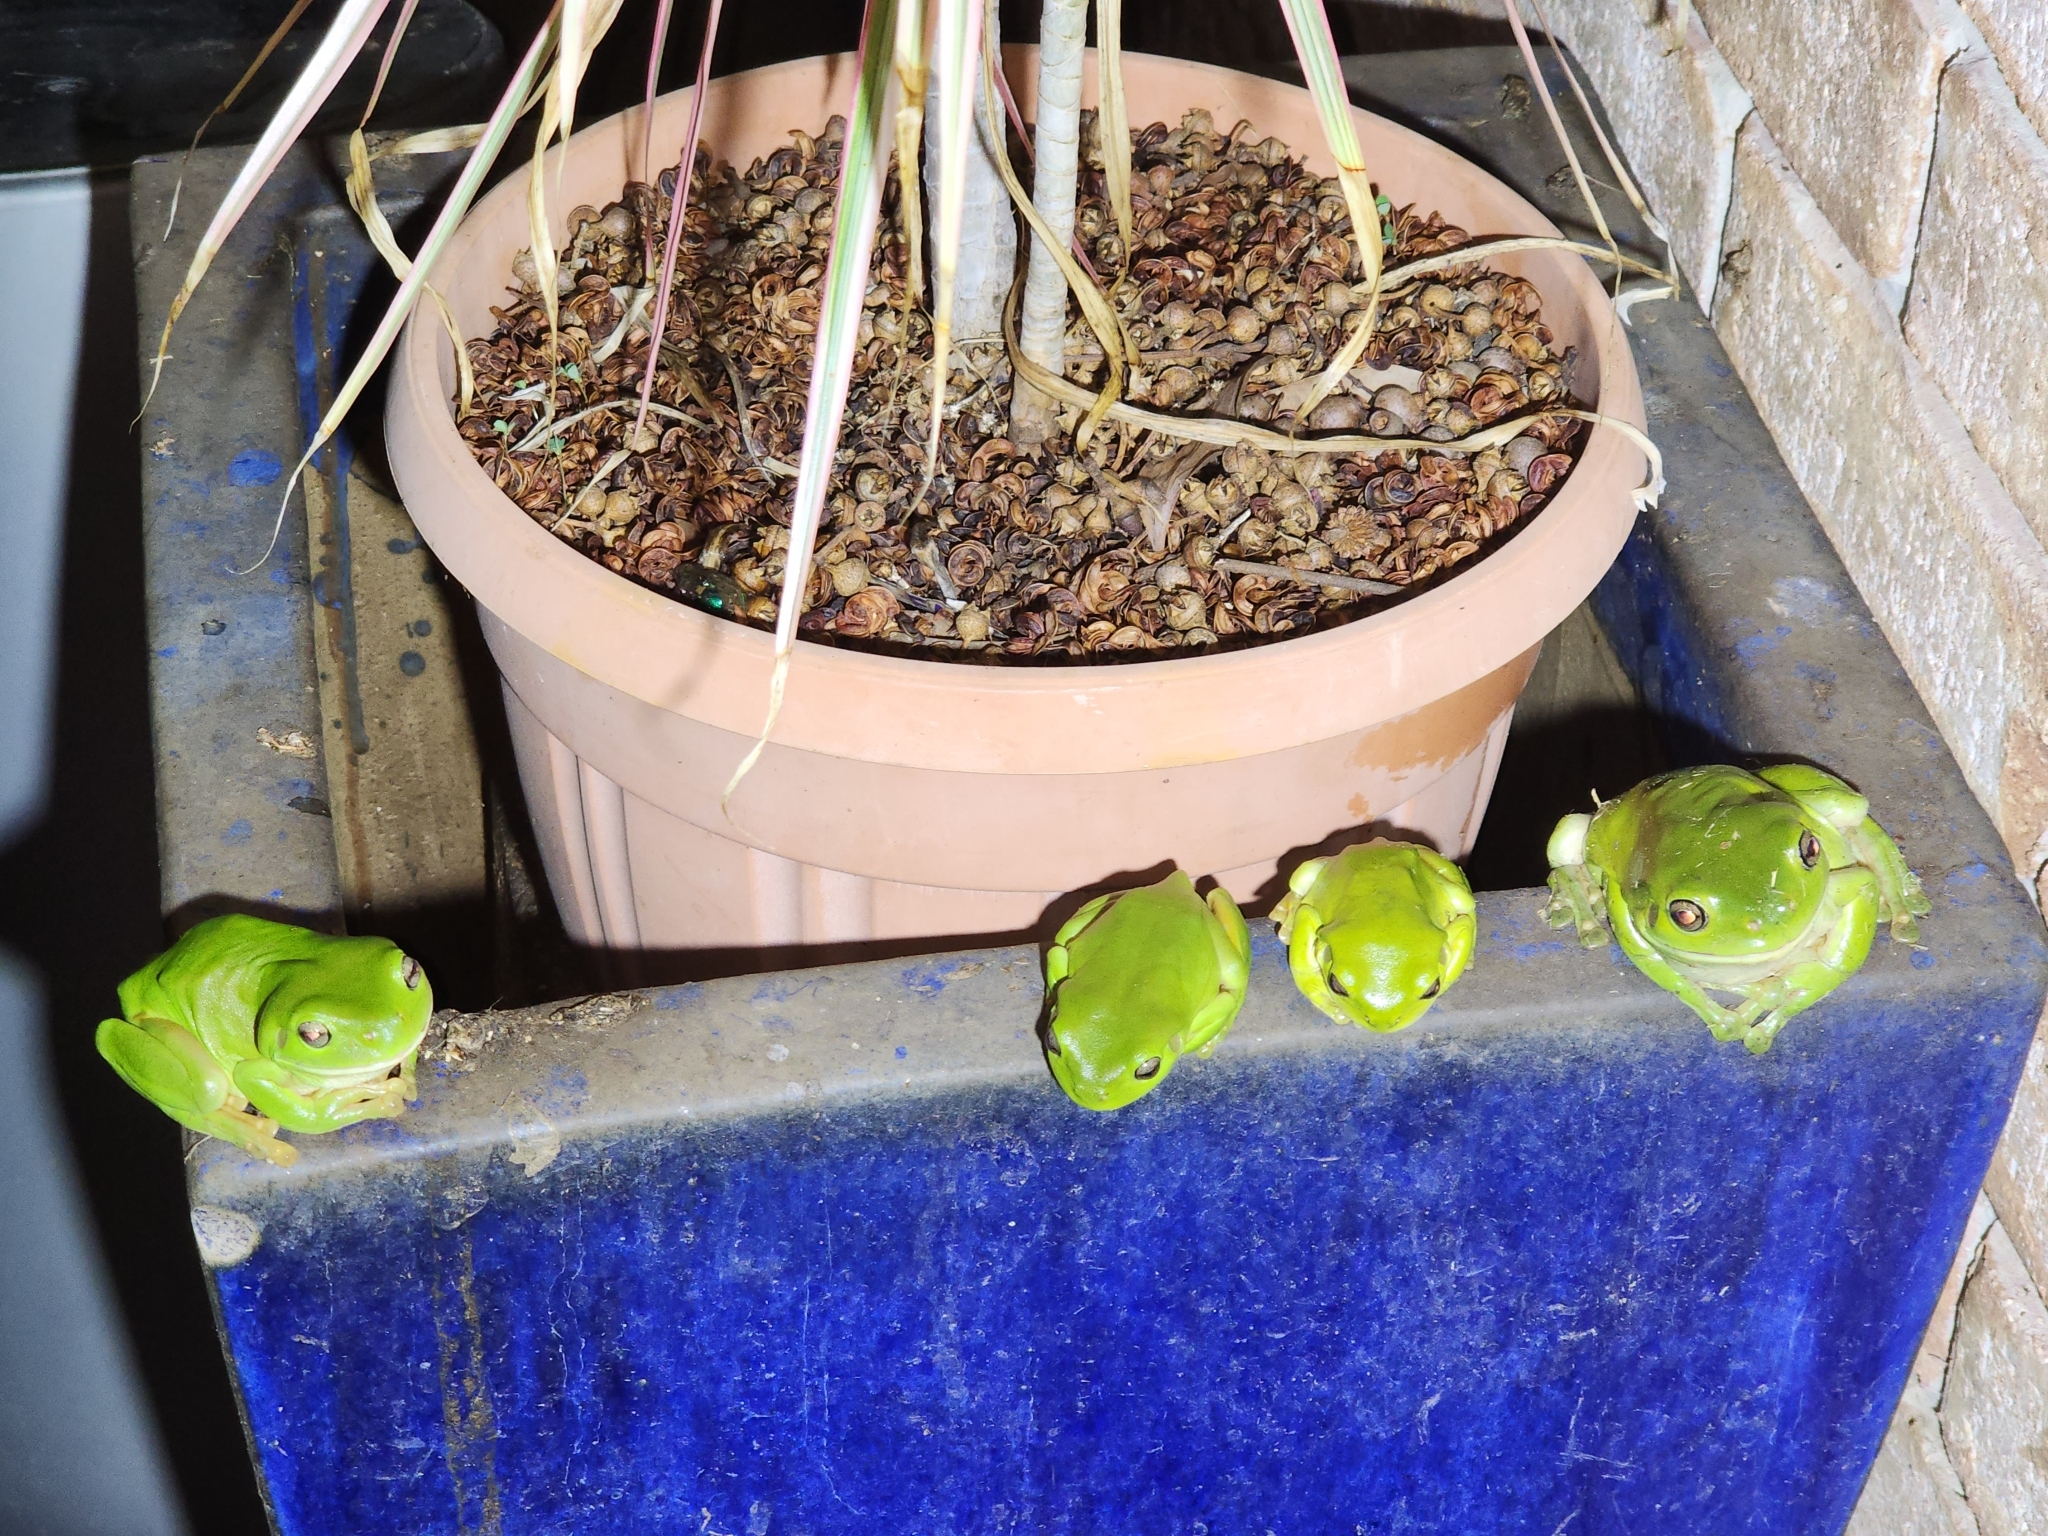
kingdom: Animalia
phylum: Chordata
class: Amphibia
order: Anura
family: Pelodryadidae
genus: Ranoidea
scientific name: Ranoidea caerulea
